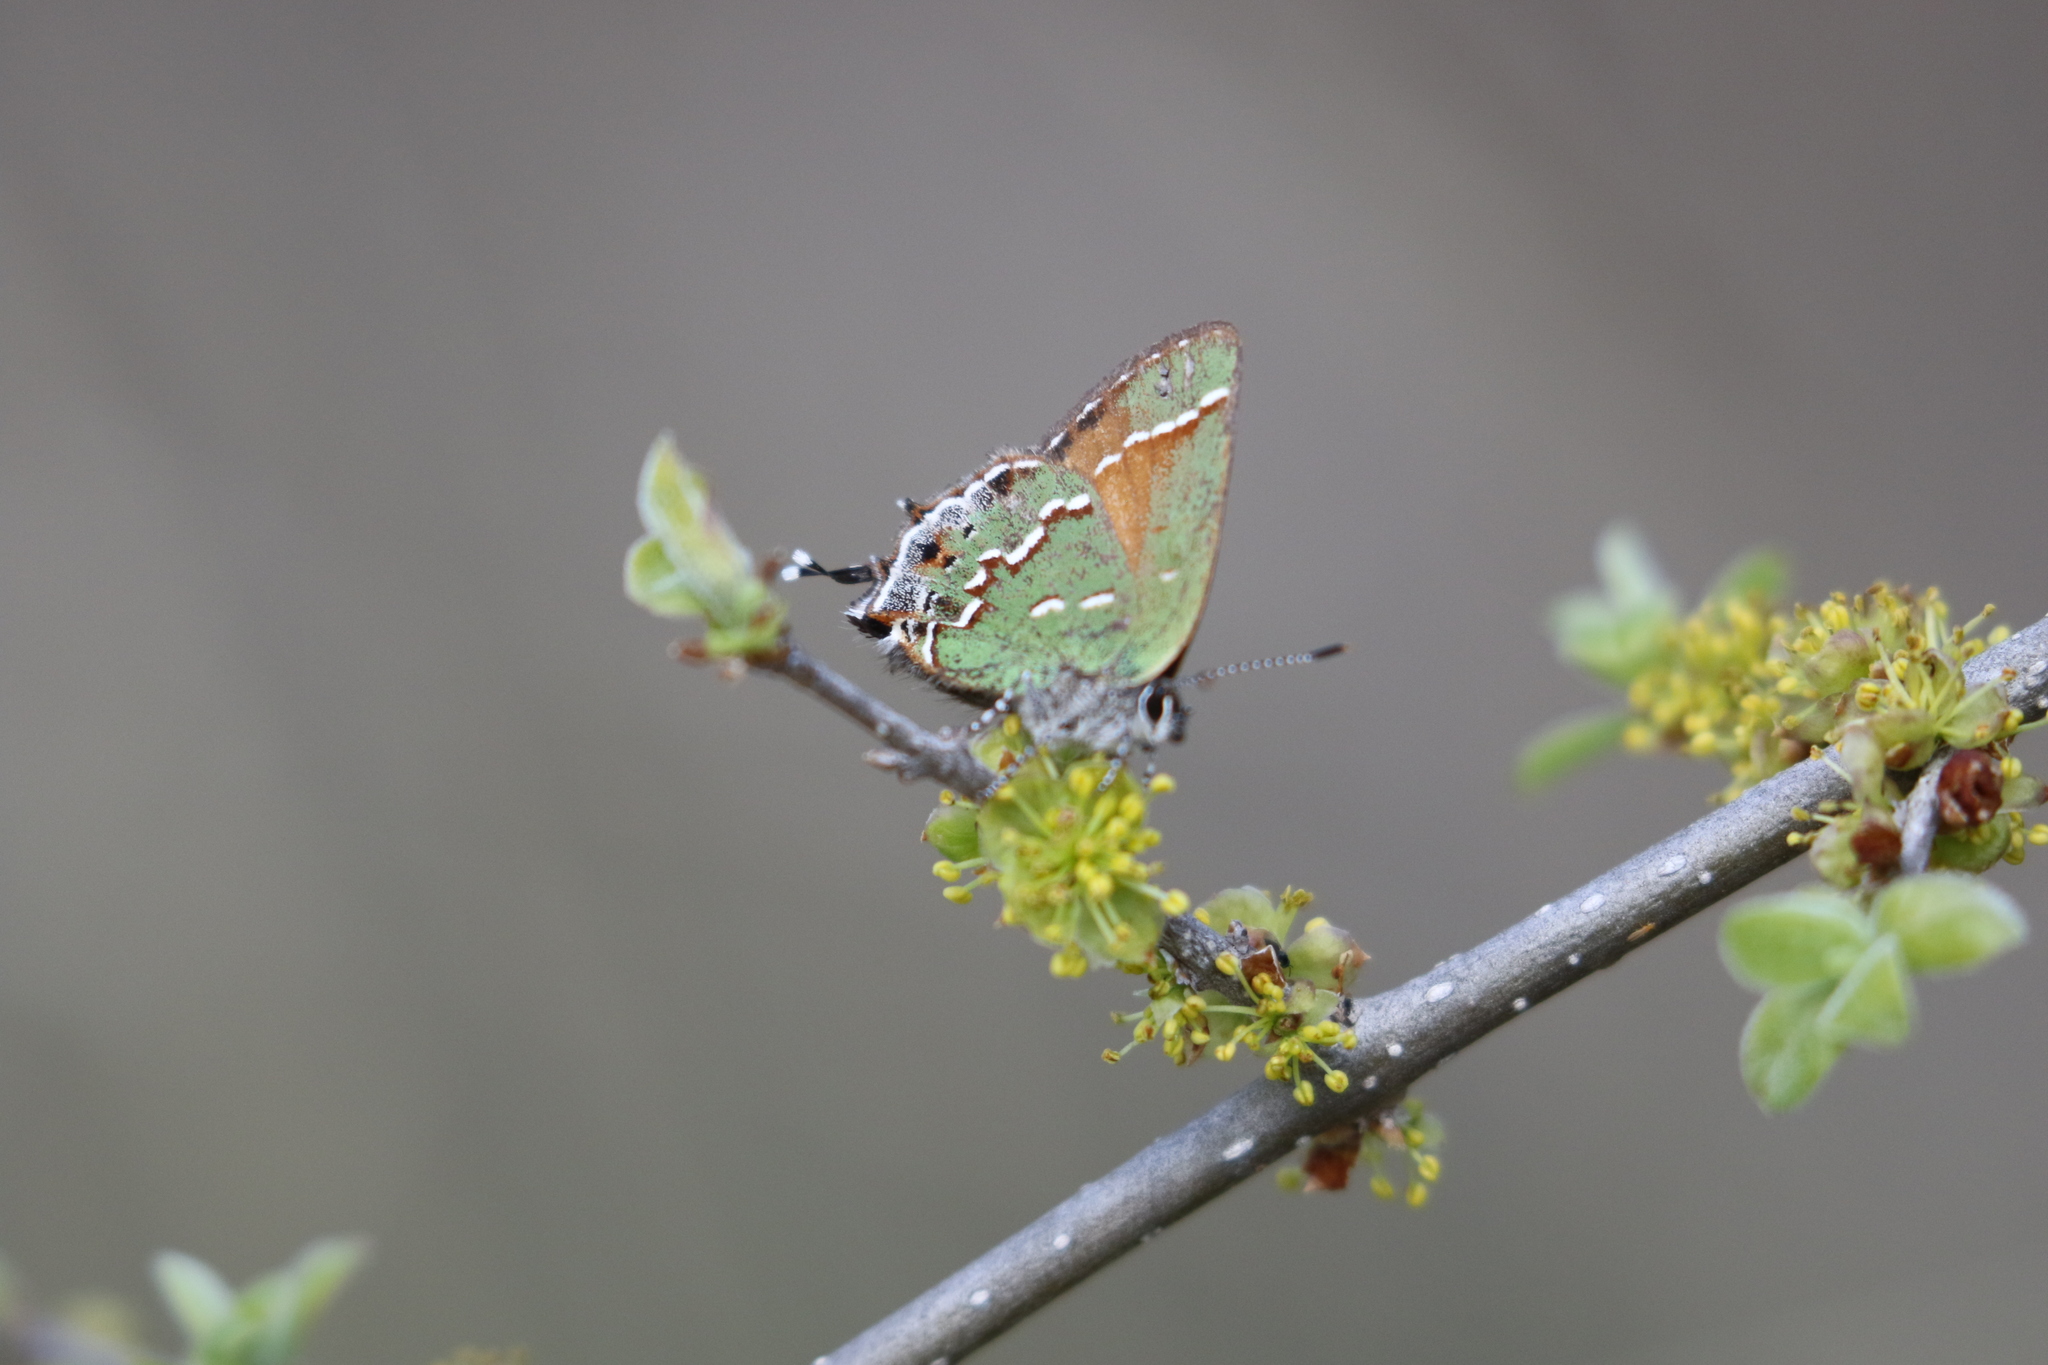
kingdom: Animalia
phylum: Arthropoda
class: Insecta
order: Lepidoptera
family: Lycaenidae
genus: Mitoura
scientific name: Mitoura gryneus
